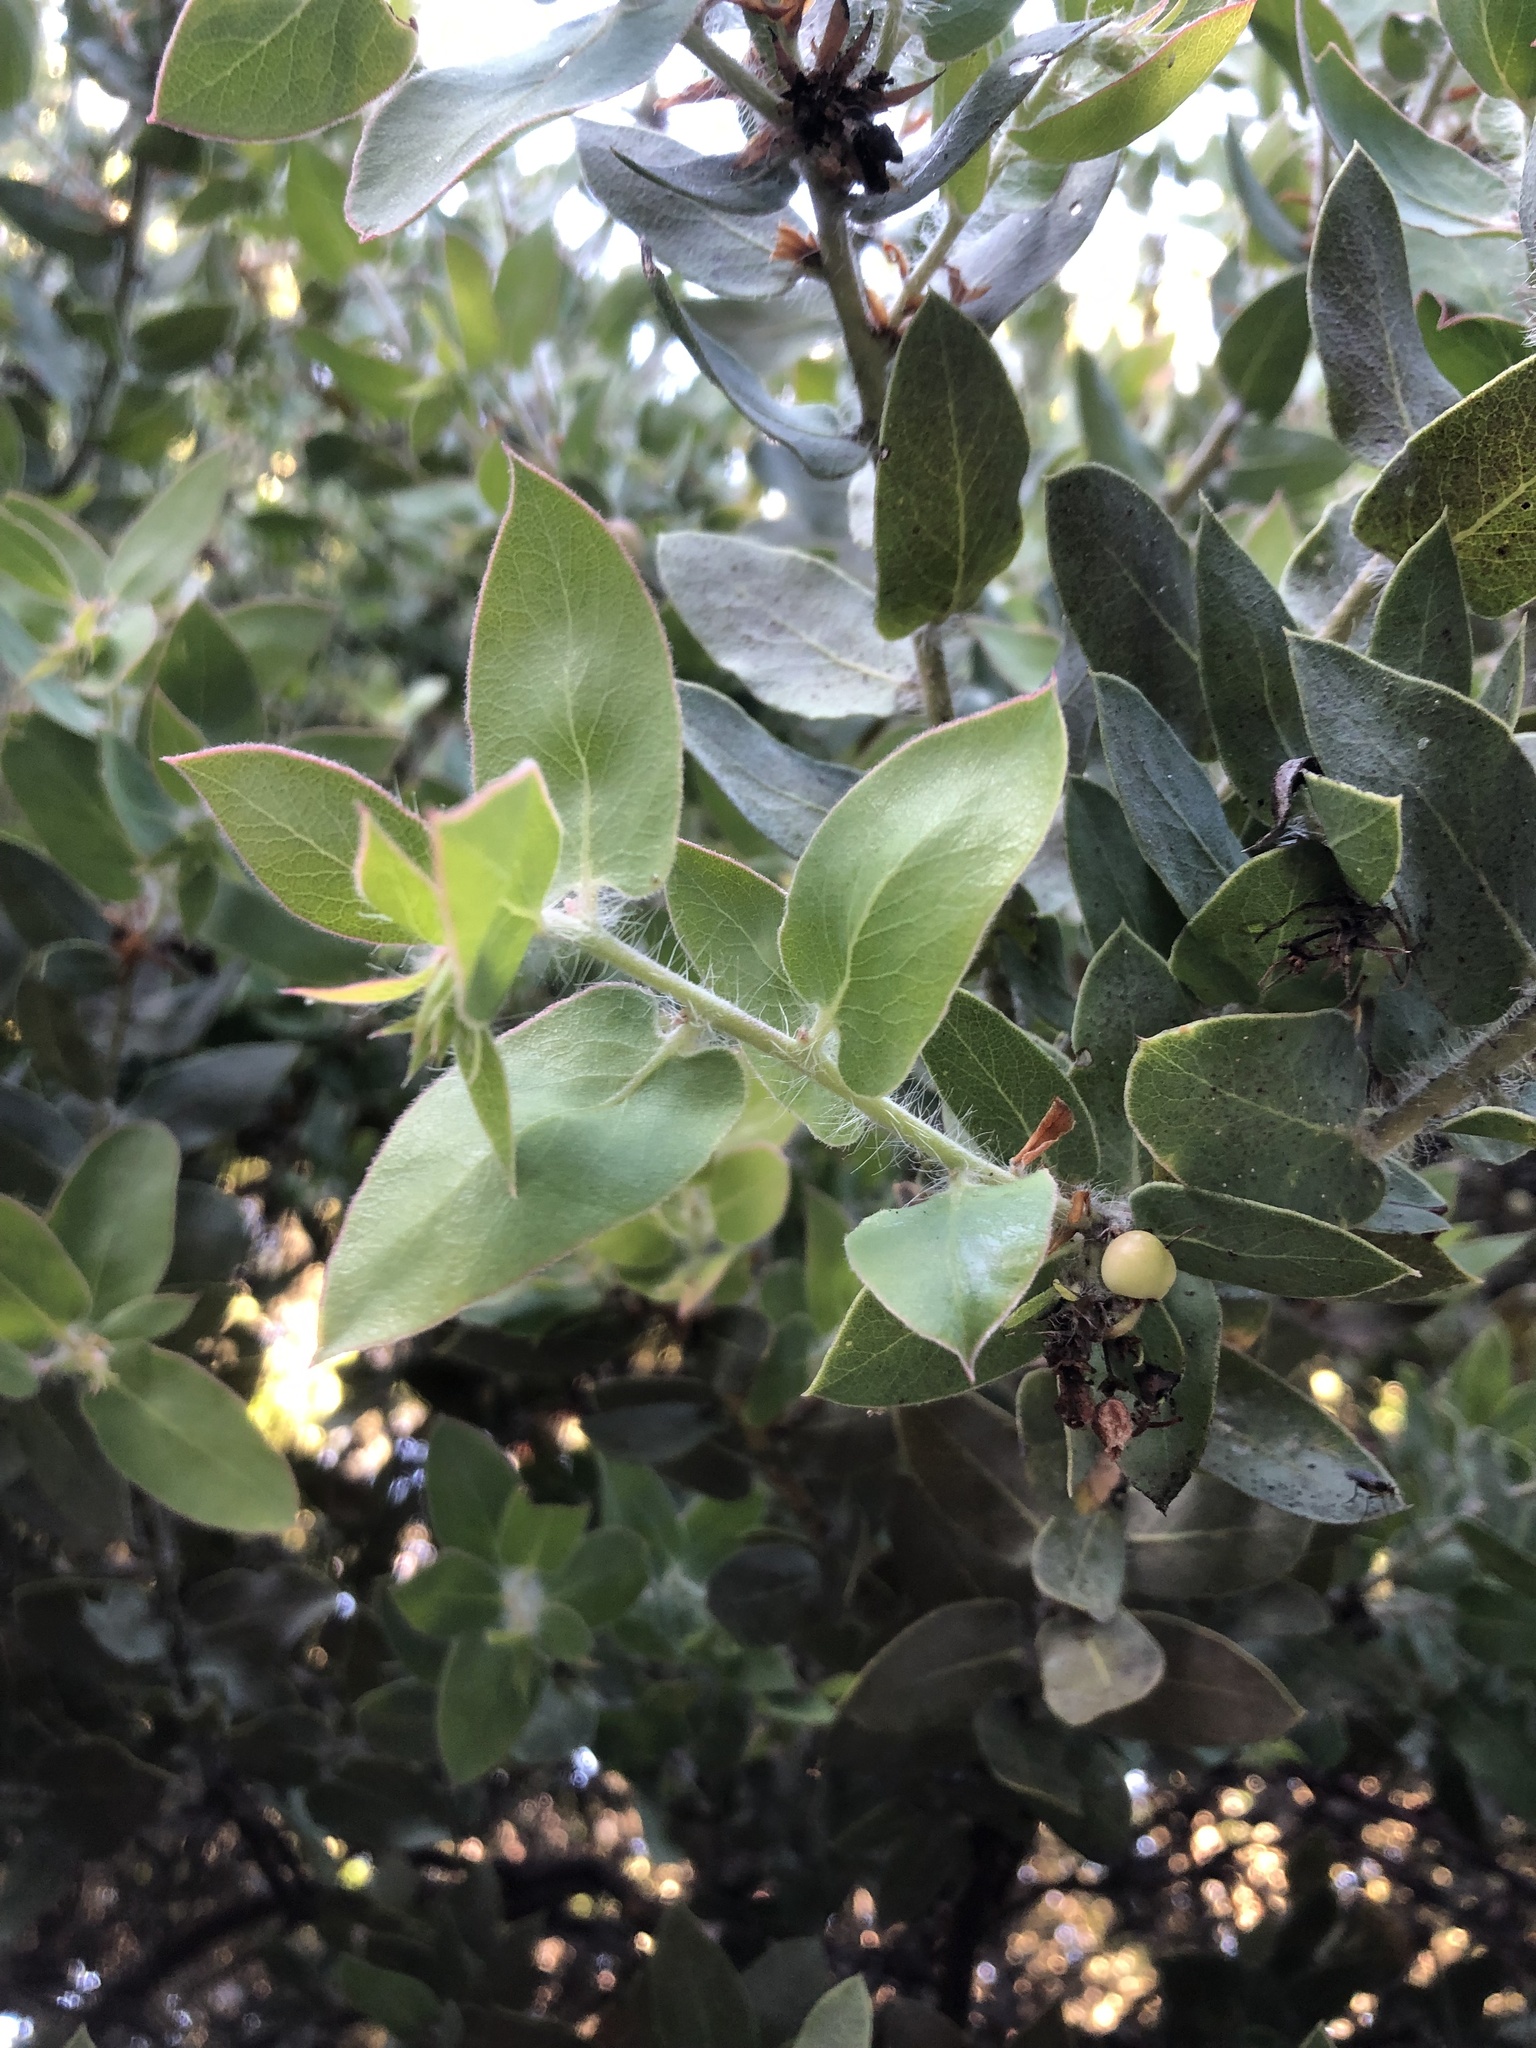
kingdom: Plantae
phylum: Tracheophyta
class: Magnoliopsida
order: Ericales
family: Ericaceae
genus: Arctostaphylos
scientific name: Arctostaphylos pechoensis
